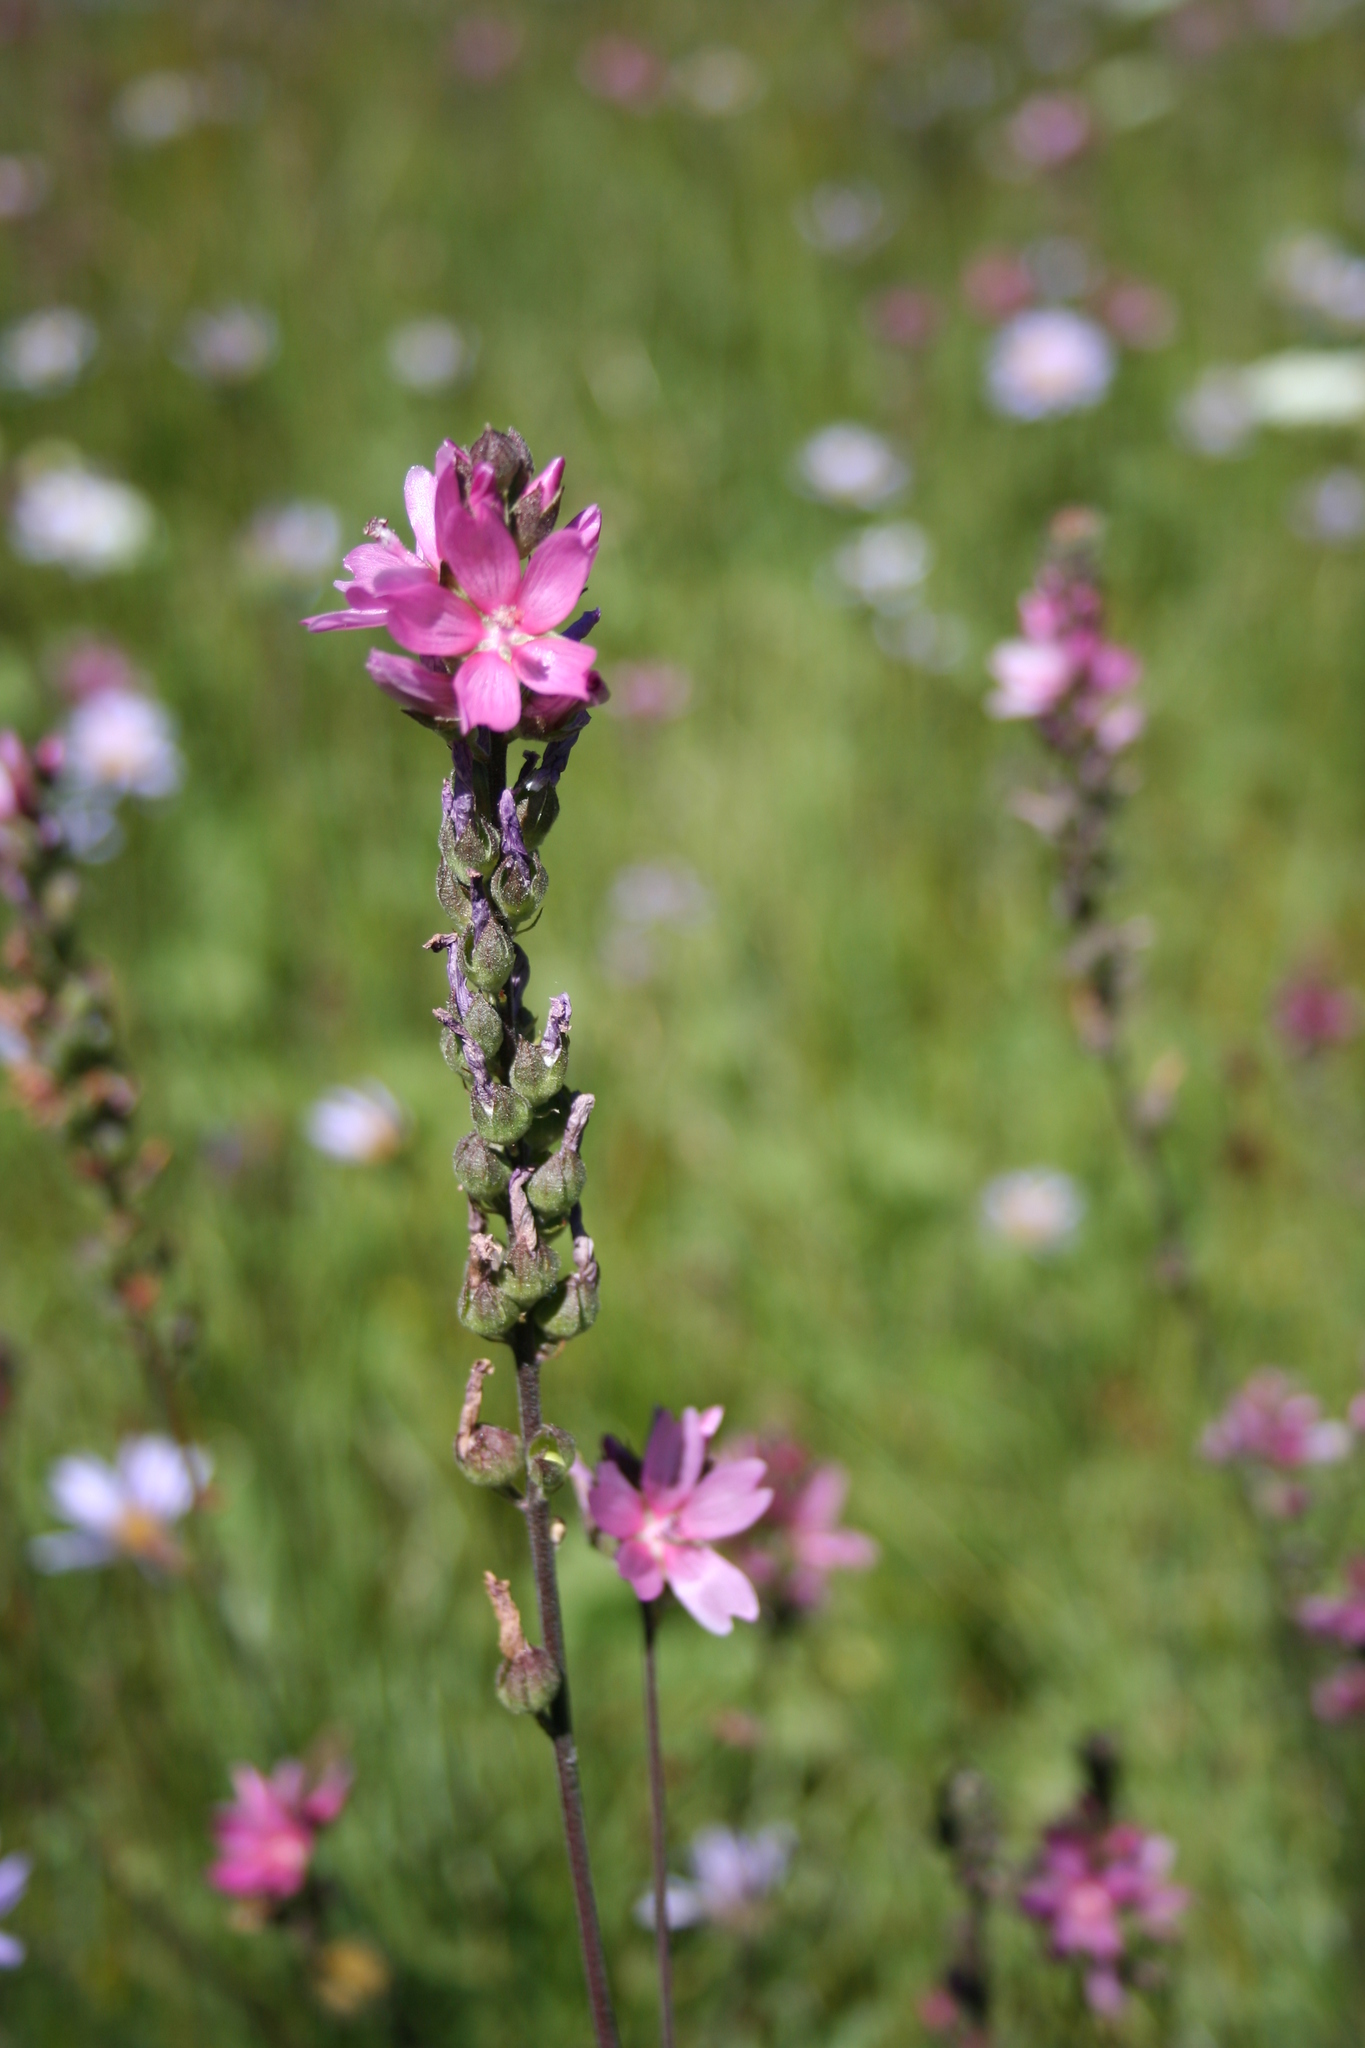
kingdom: Plantae
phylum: Tracheophyta
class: Magnoliopsida
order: Malvales
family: Malvaceae
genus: Sidalcea
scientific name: Sidalcea oregana
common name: Oregon checker-mallow
